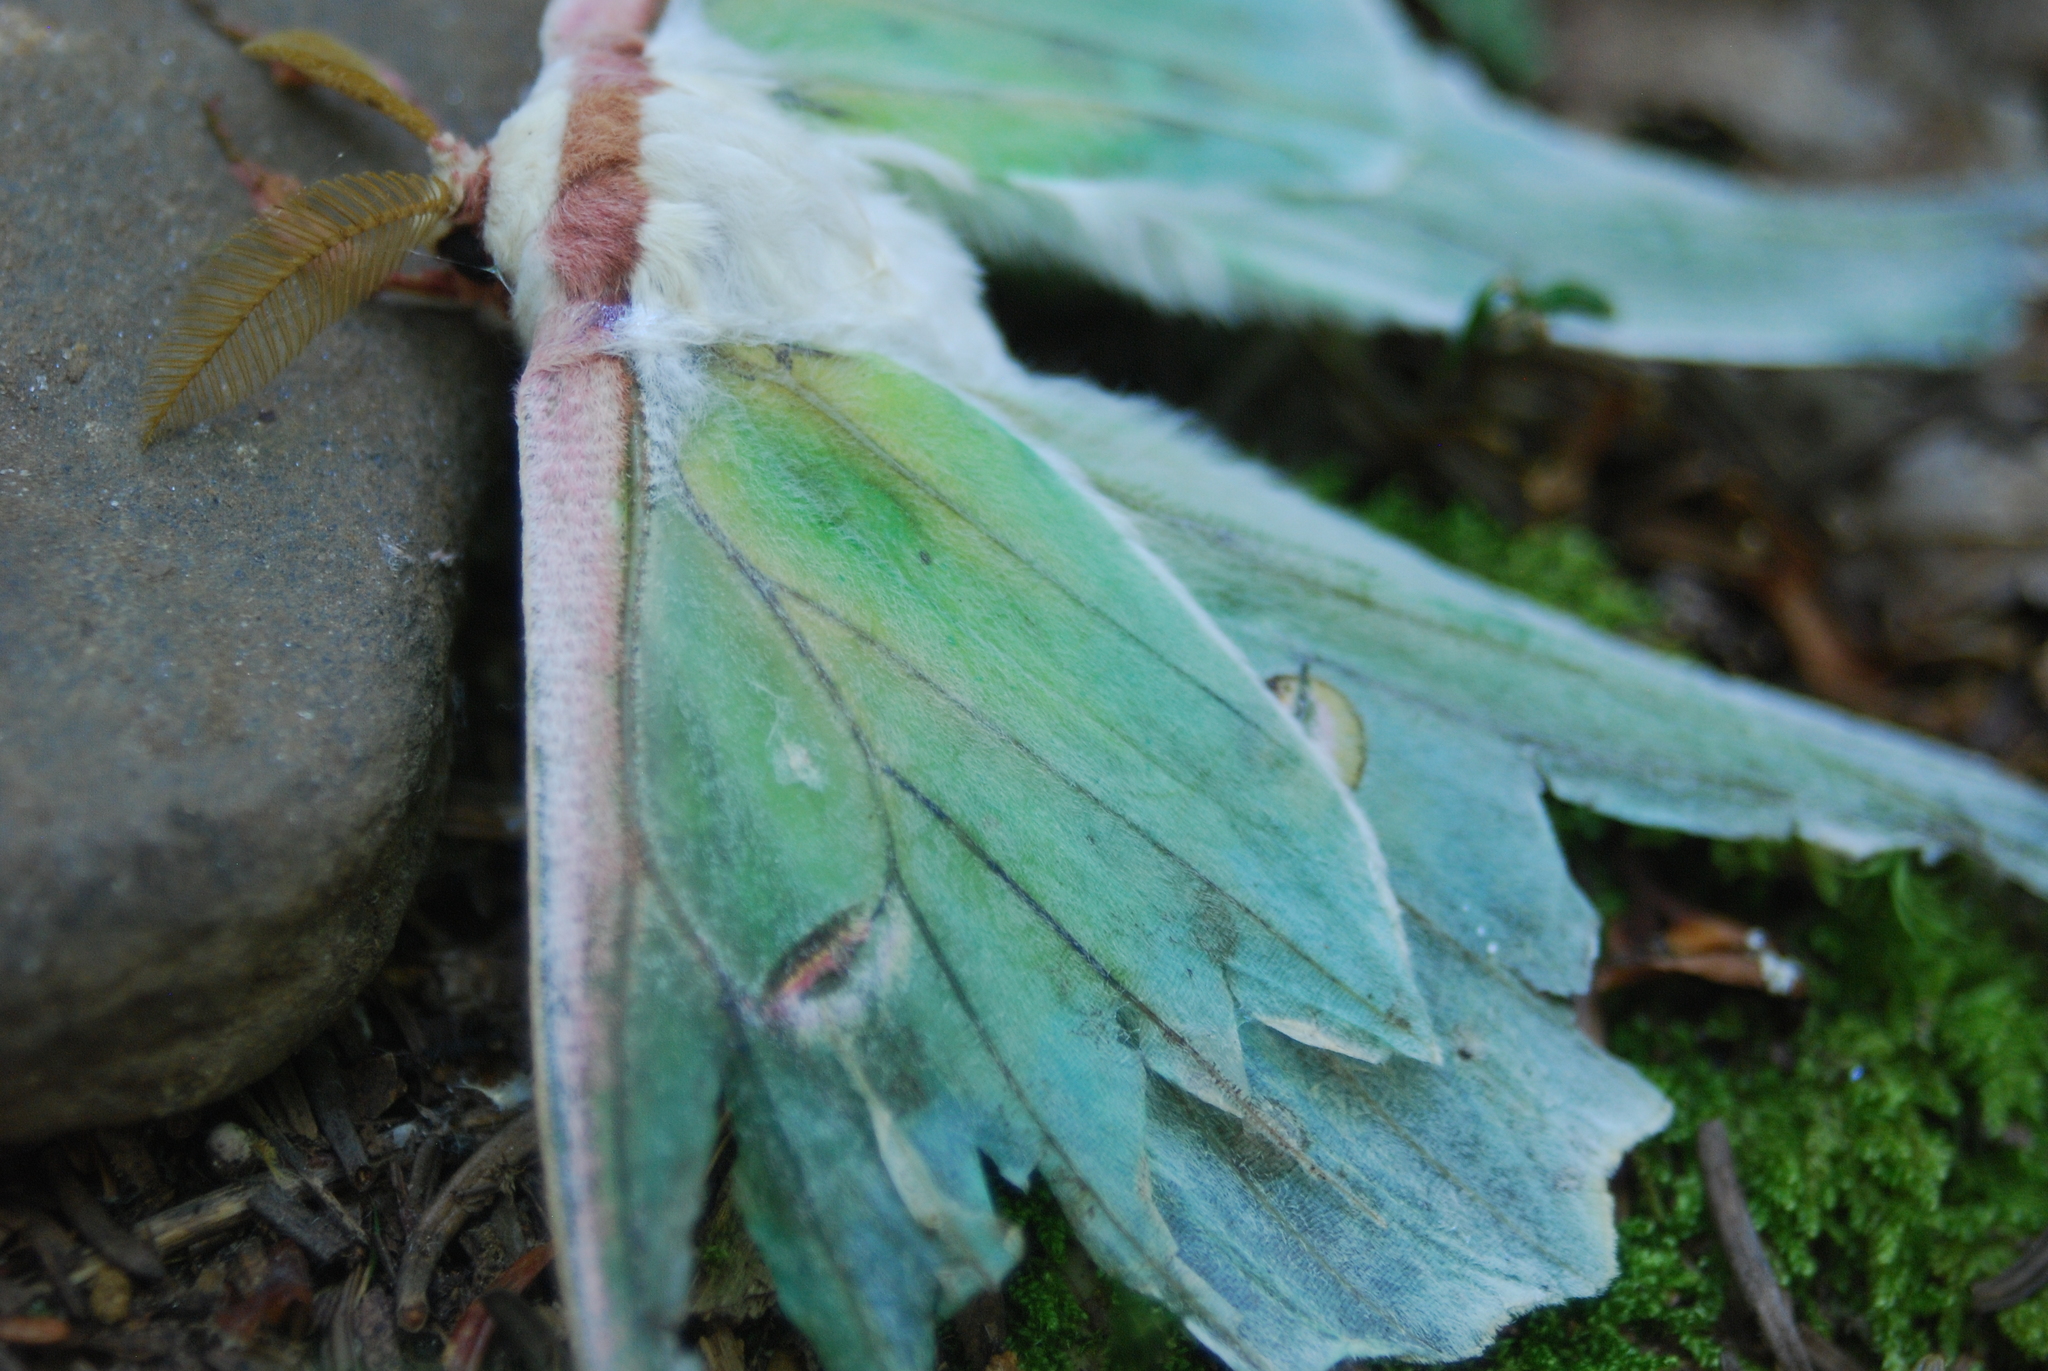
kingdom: Animalia
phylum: Arthropoda
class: Insecta
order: Lepidoptera
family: Saturniidae
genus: Actias
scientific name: Actias luna
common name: Luna moth
